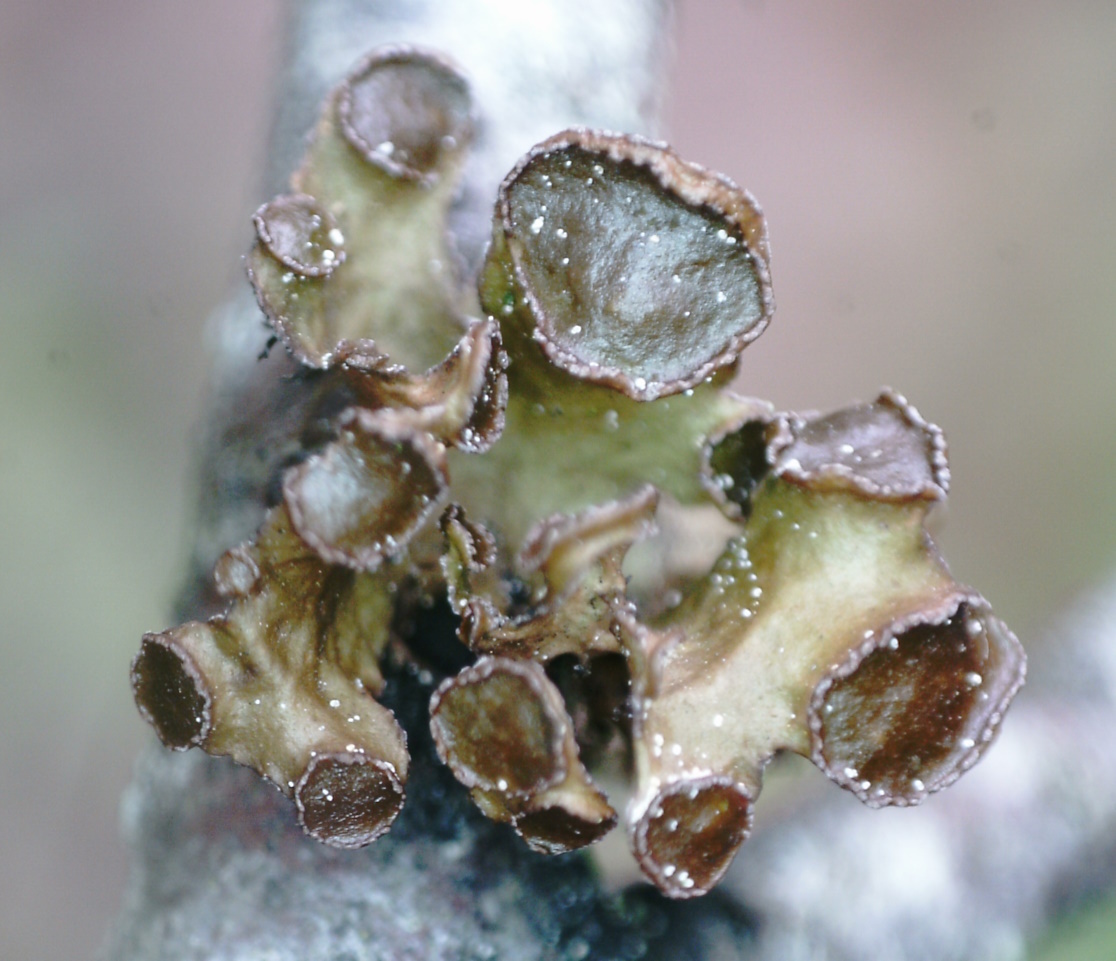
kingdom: Fungi
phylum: Ascomycota
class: Lecanoromycetes
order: Lecanorales
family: Parmeliaceae
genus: Cetraria
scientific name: Cetraria sepincola
